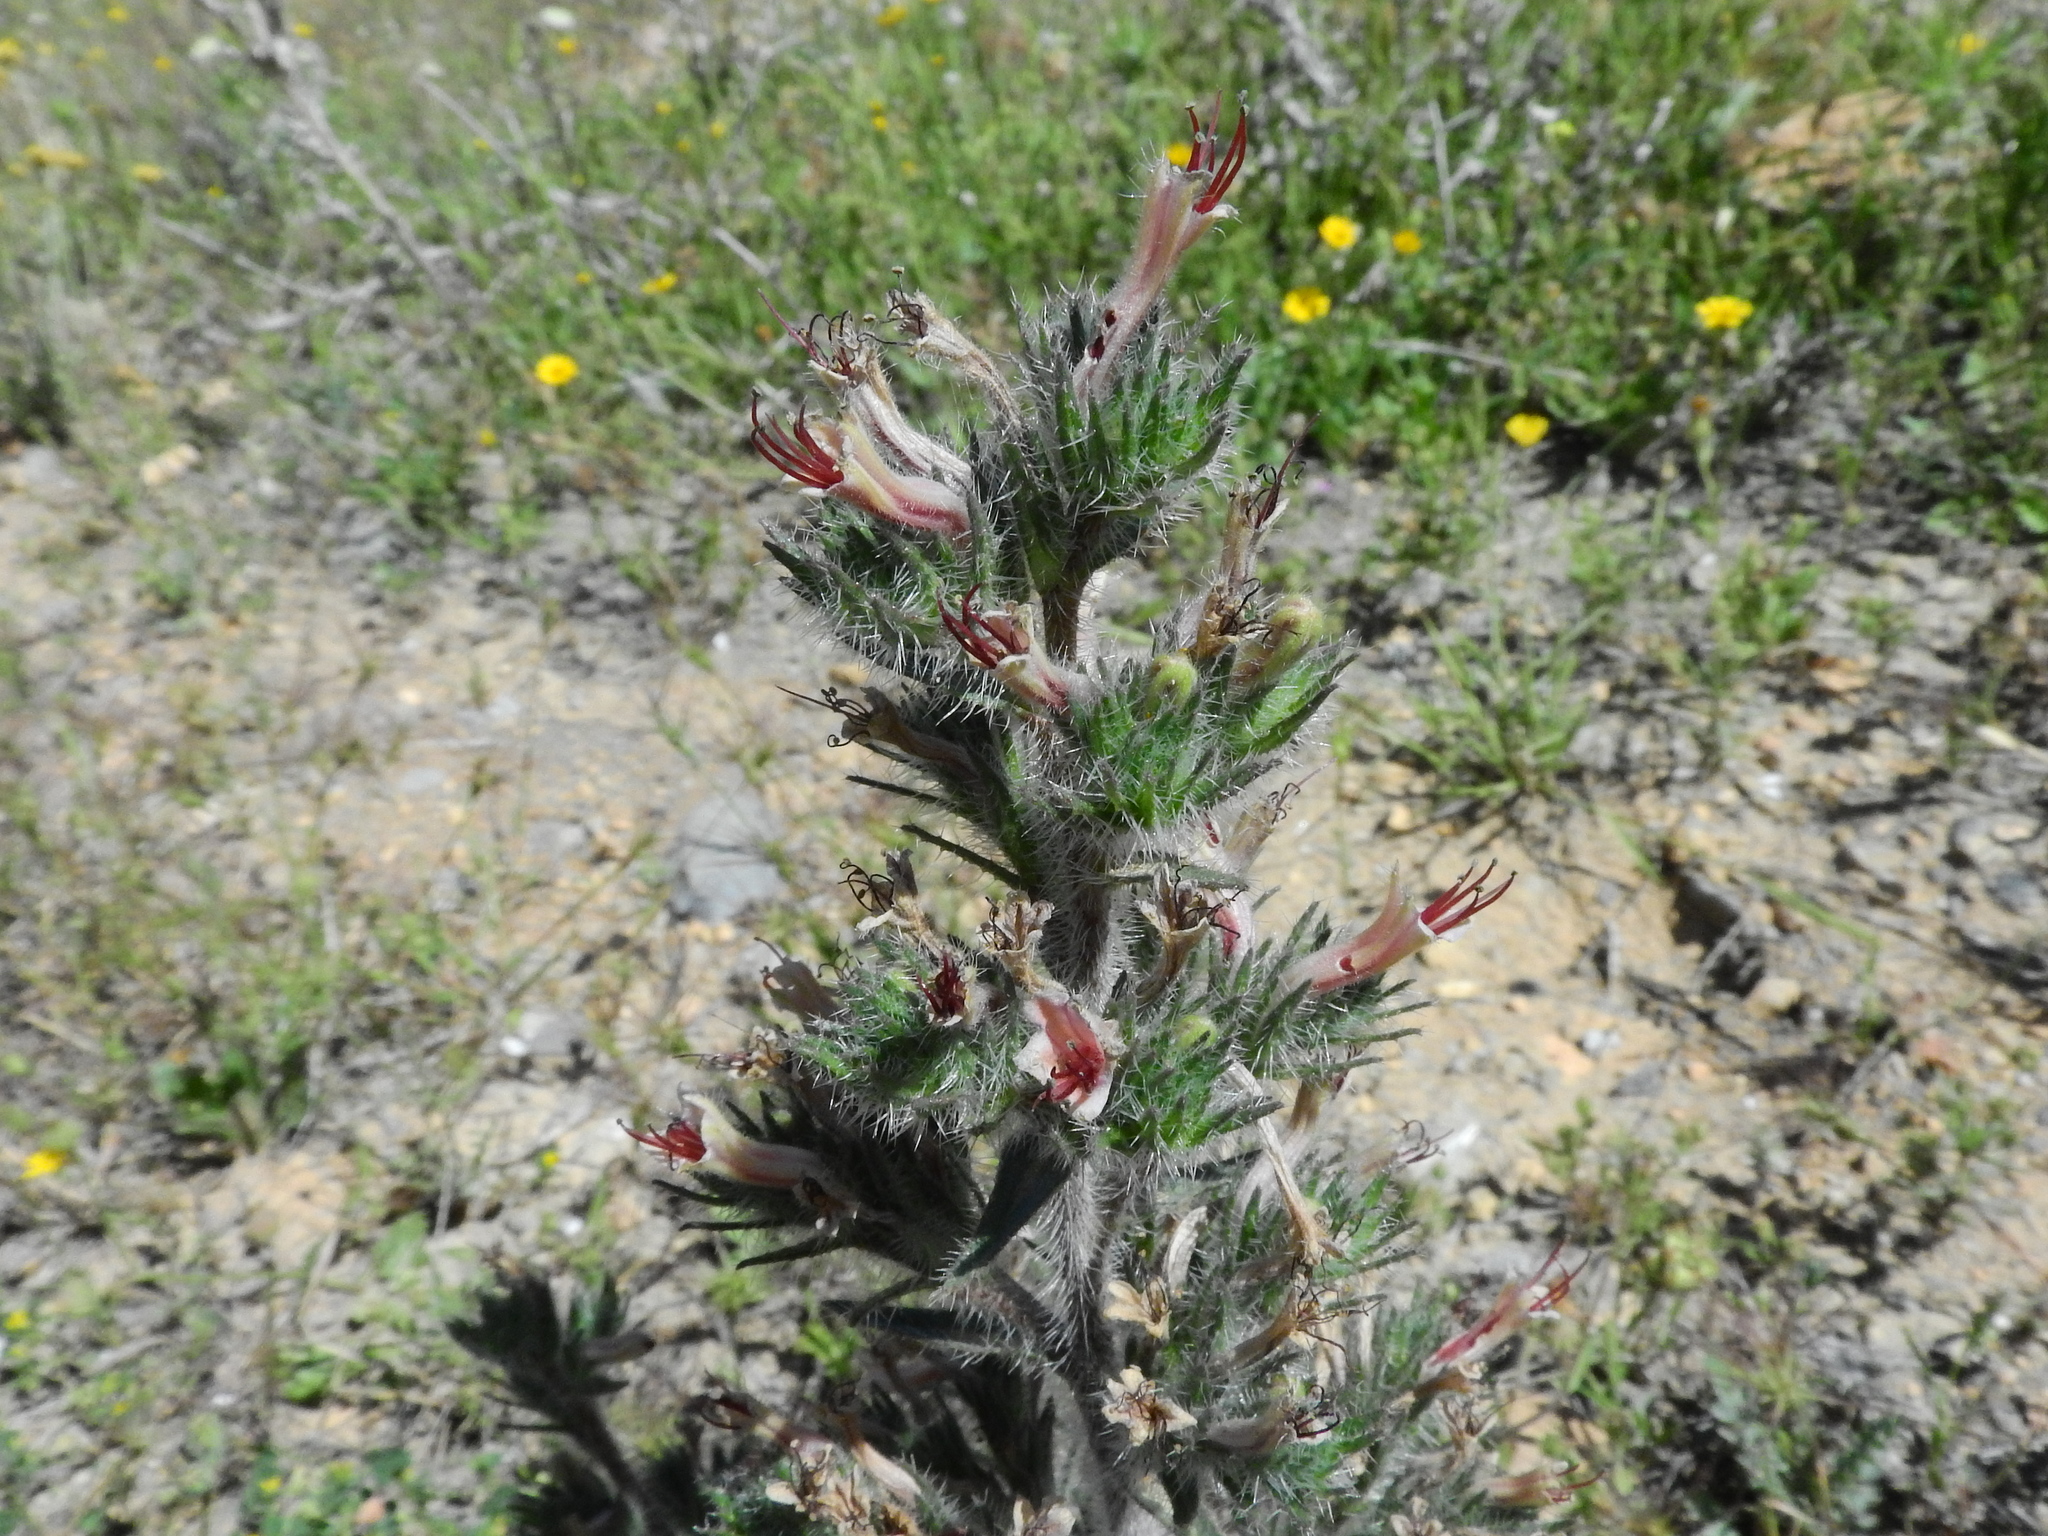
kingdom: Plantae
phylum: Tracheophyta
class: Magnoliopsida
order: Boraginales
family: Boraginaceae
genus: Echium
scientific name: Echium asperrimum
